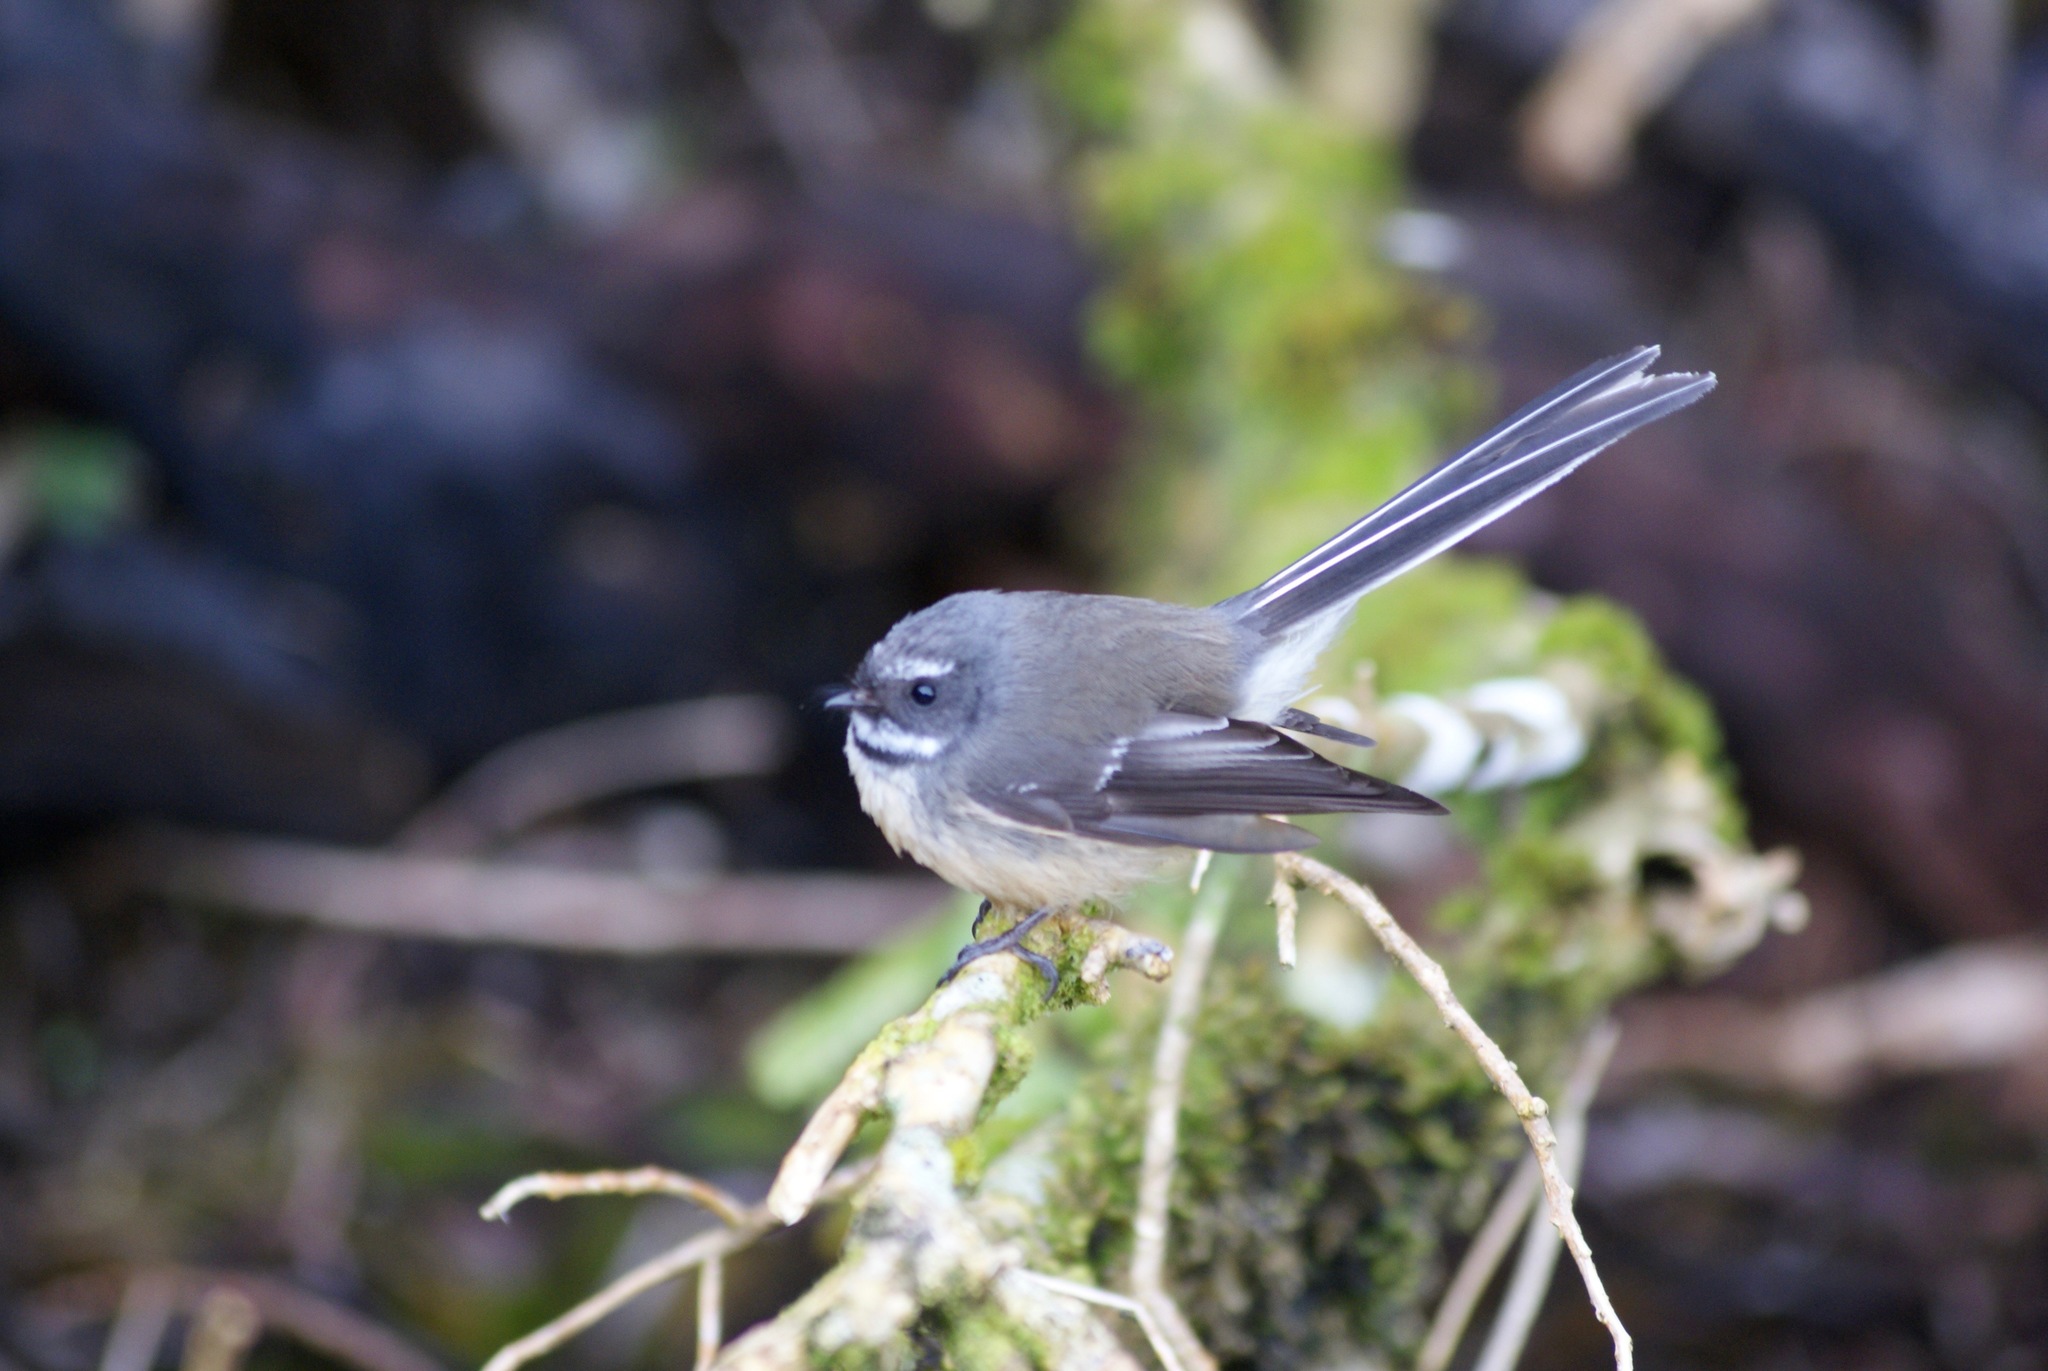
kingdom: Animalia
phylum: Chordata
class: Aves
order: Passeriformes
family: Rhipiduridae
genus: Rhipidura
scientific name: Rhipidura fuliginosa
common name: New zealand fantail
